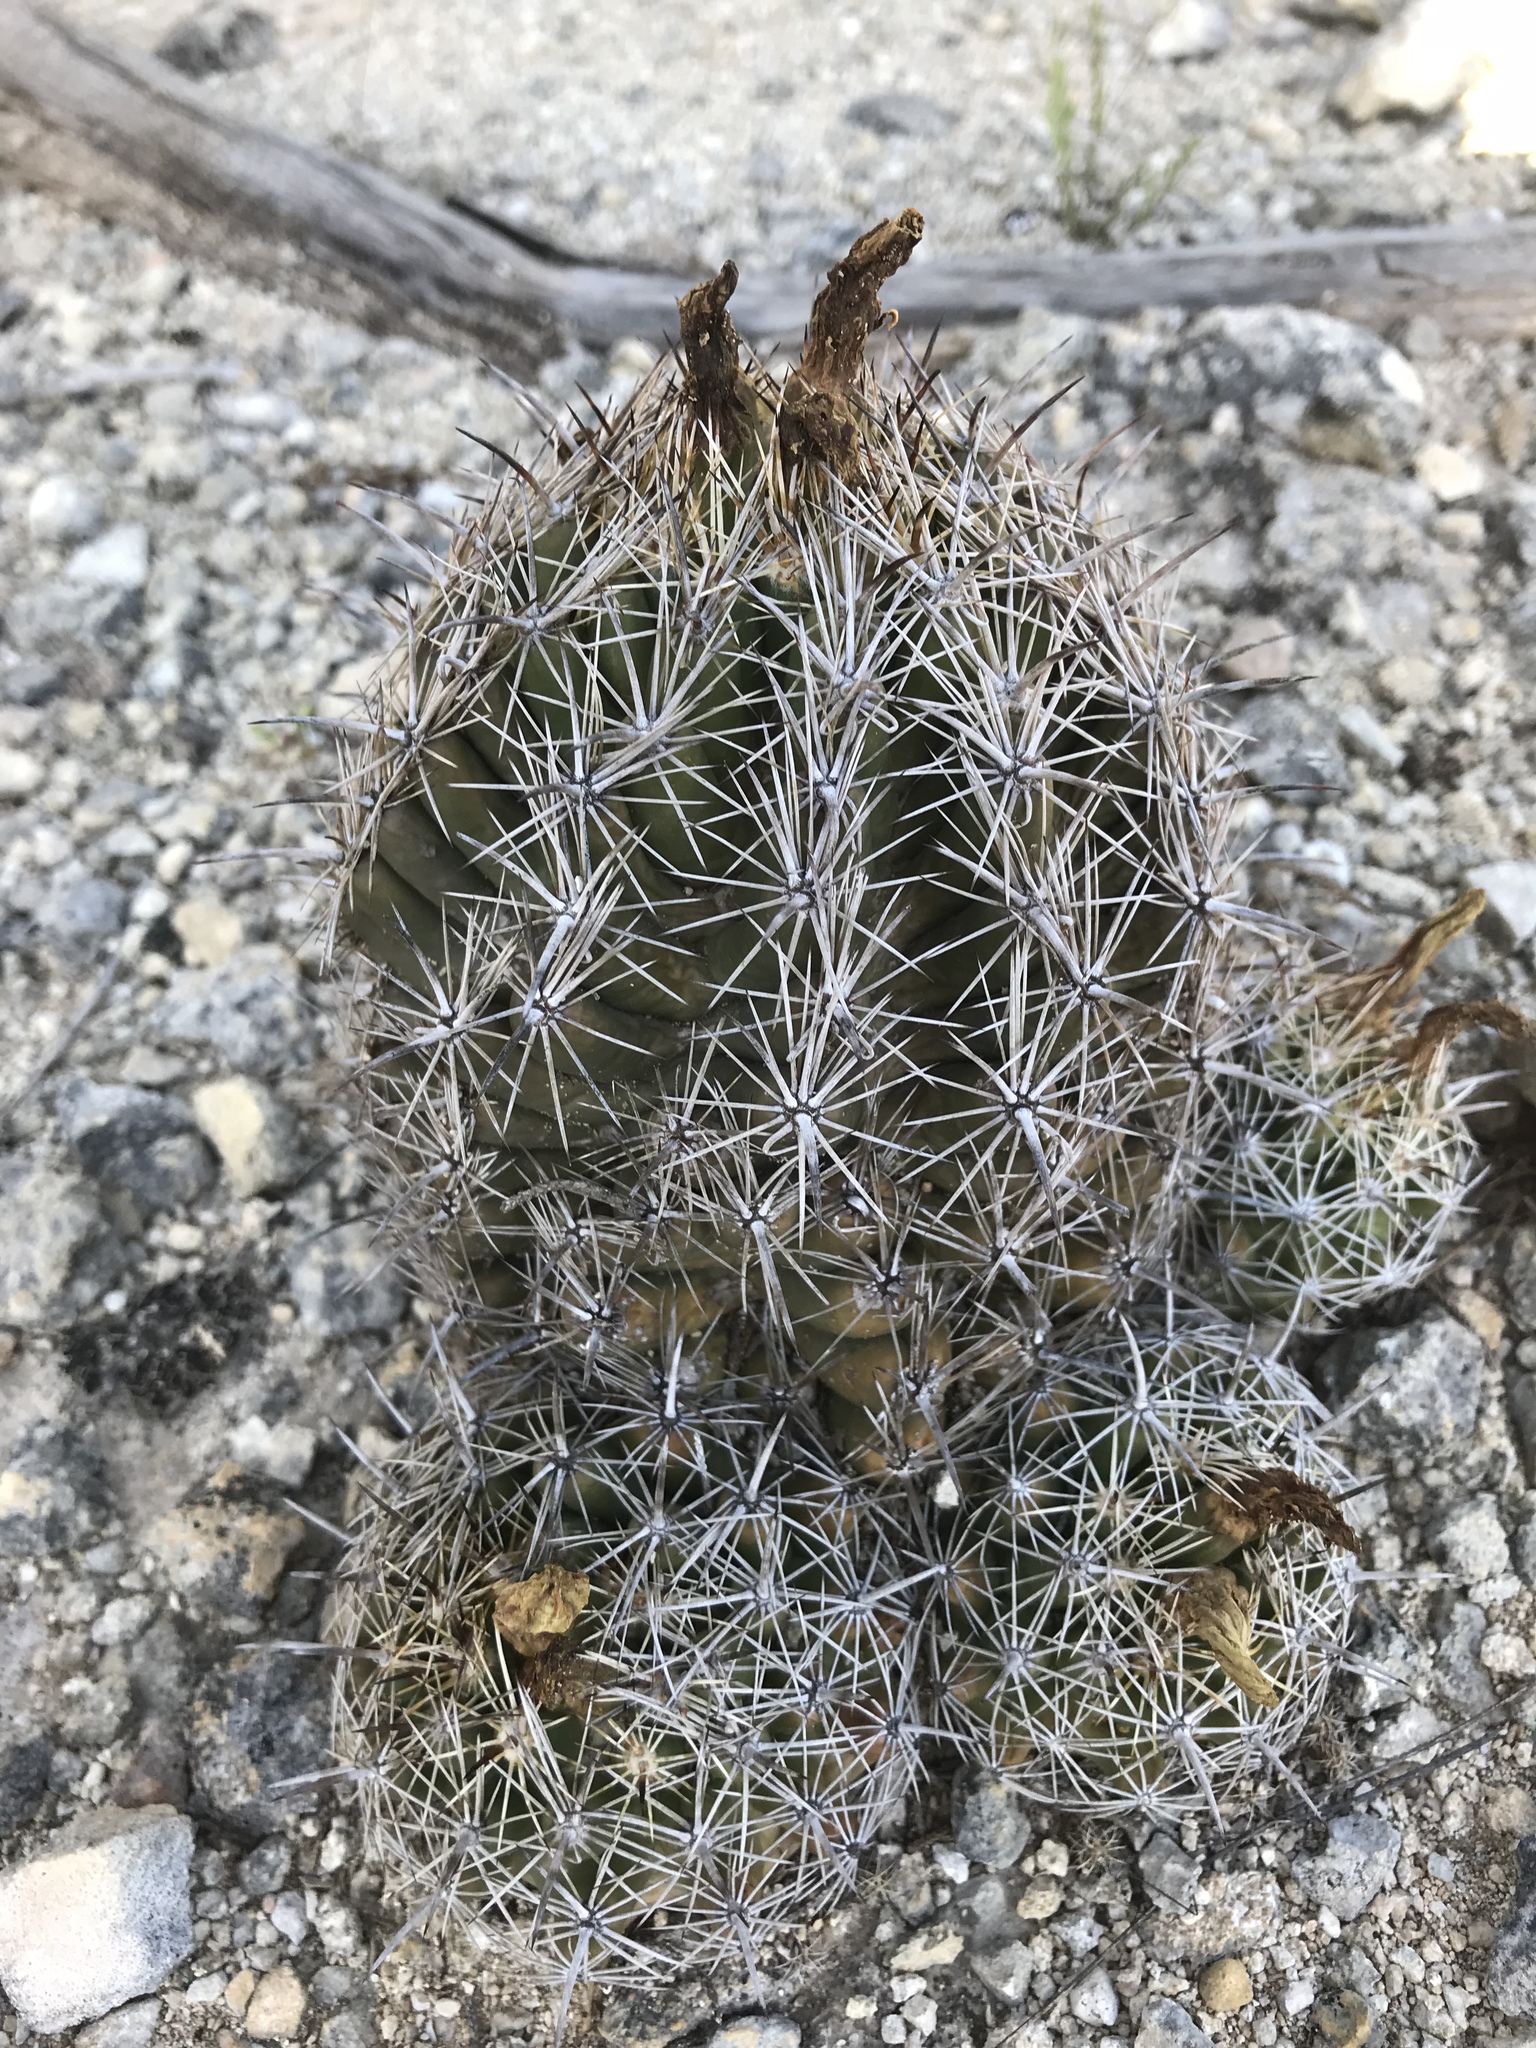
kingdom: Plantae
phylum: Tracheophyta
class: Magnoliopsida
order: Caryophyllales
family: Cactaceae
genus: Coryphantha
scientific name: Coryphantha sulcata
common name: Finger cactus
